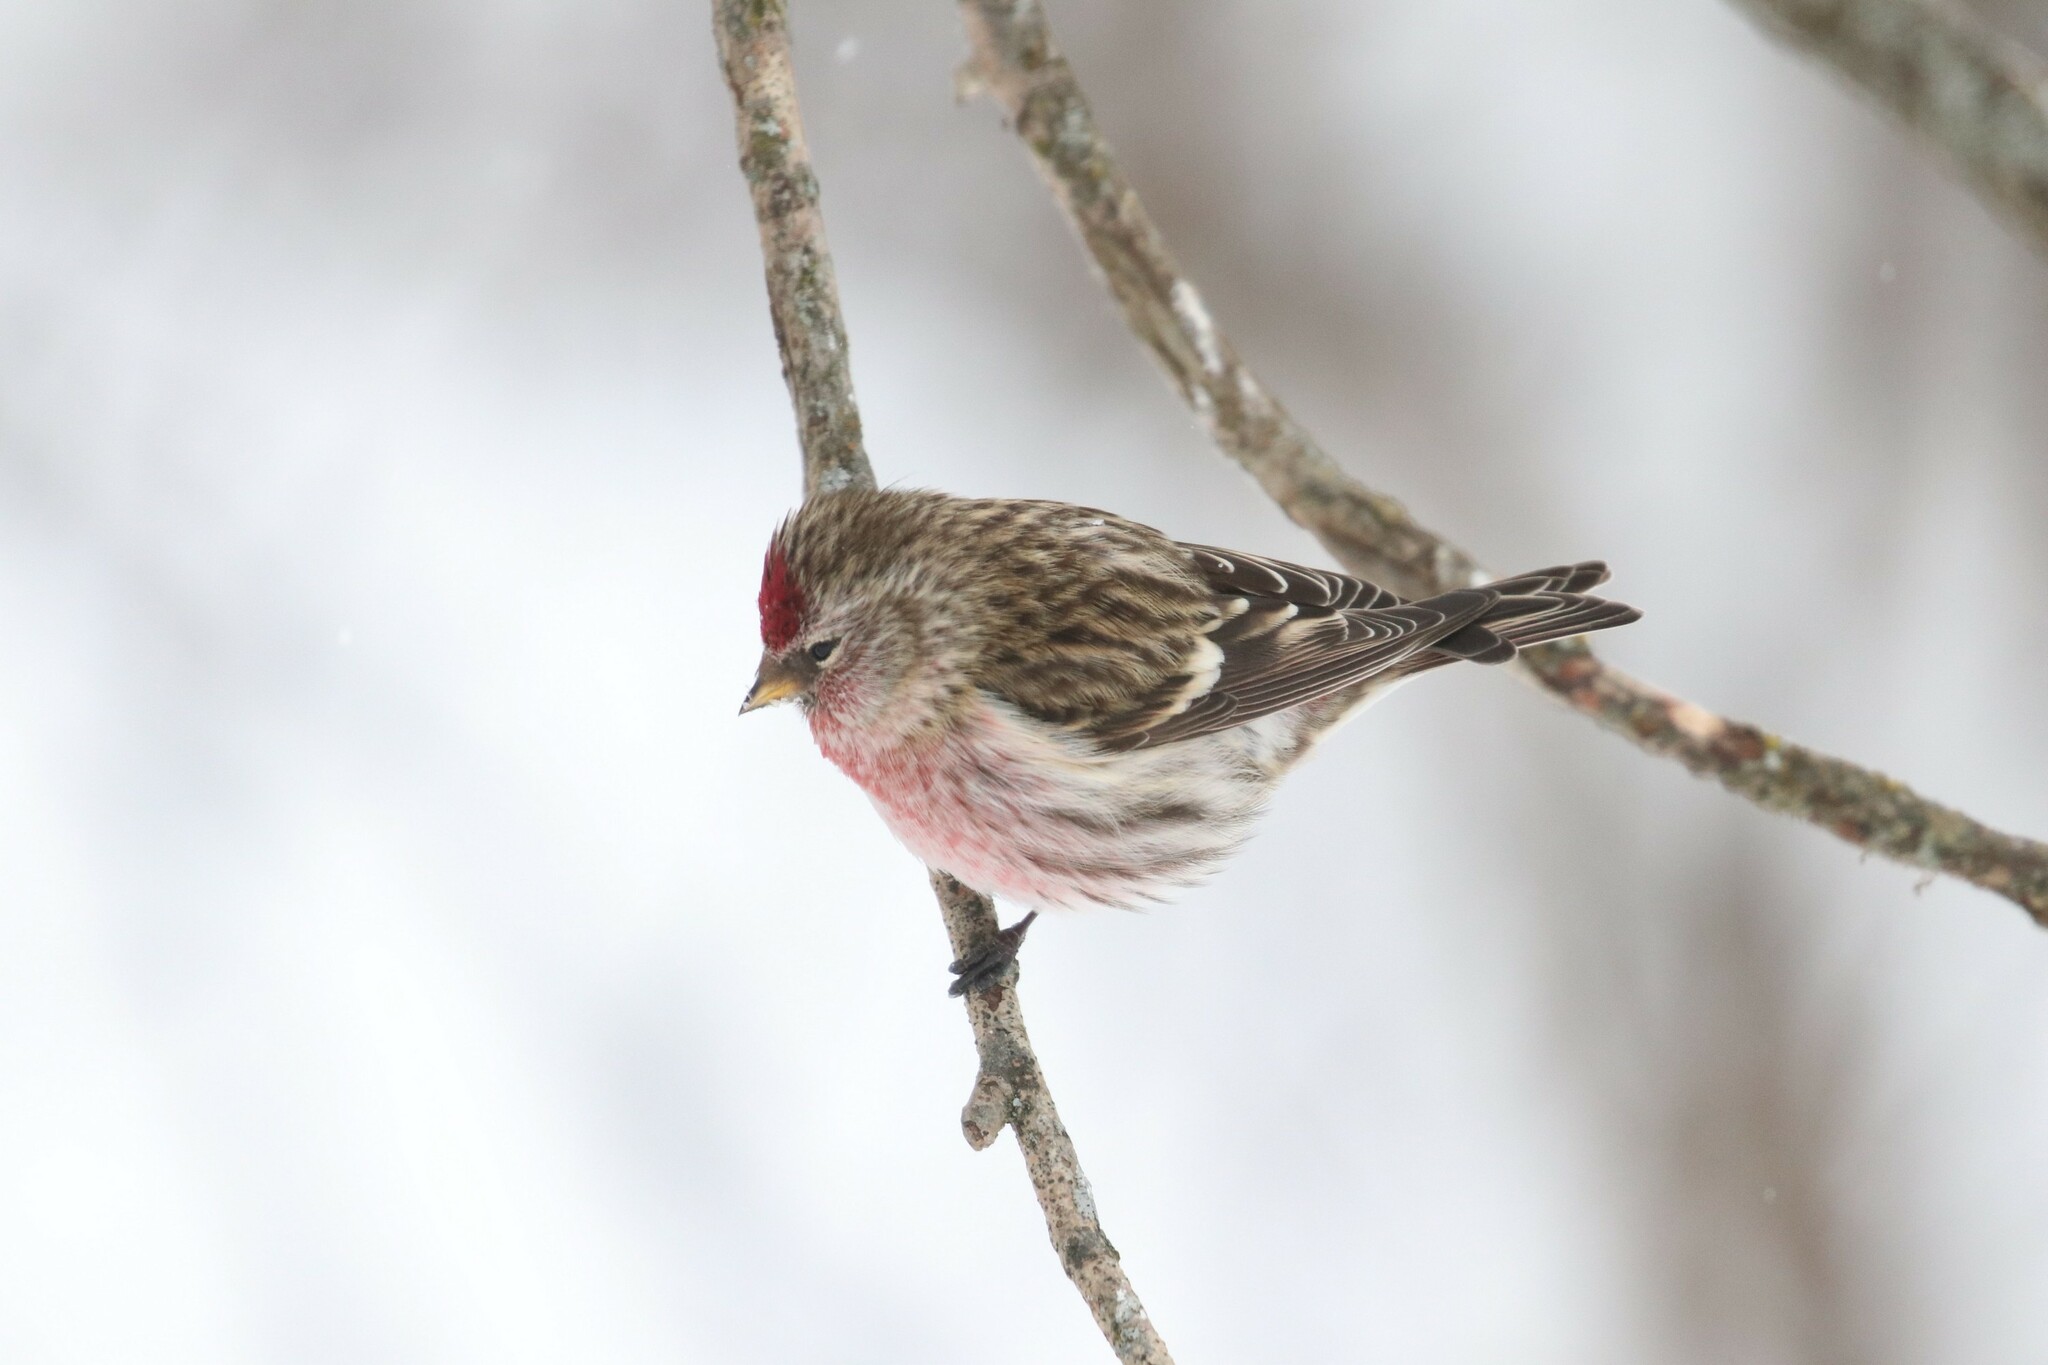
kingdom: Animalia
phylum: Chordata
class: Aves
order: Passeriformes
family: Fringillidae
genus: Acanthis
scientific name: Acanthis flammea
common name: Common redpoll
